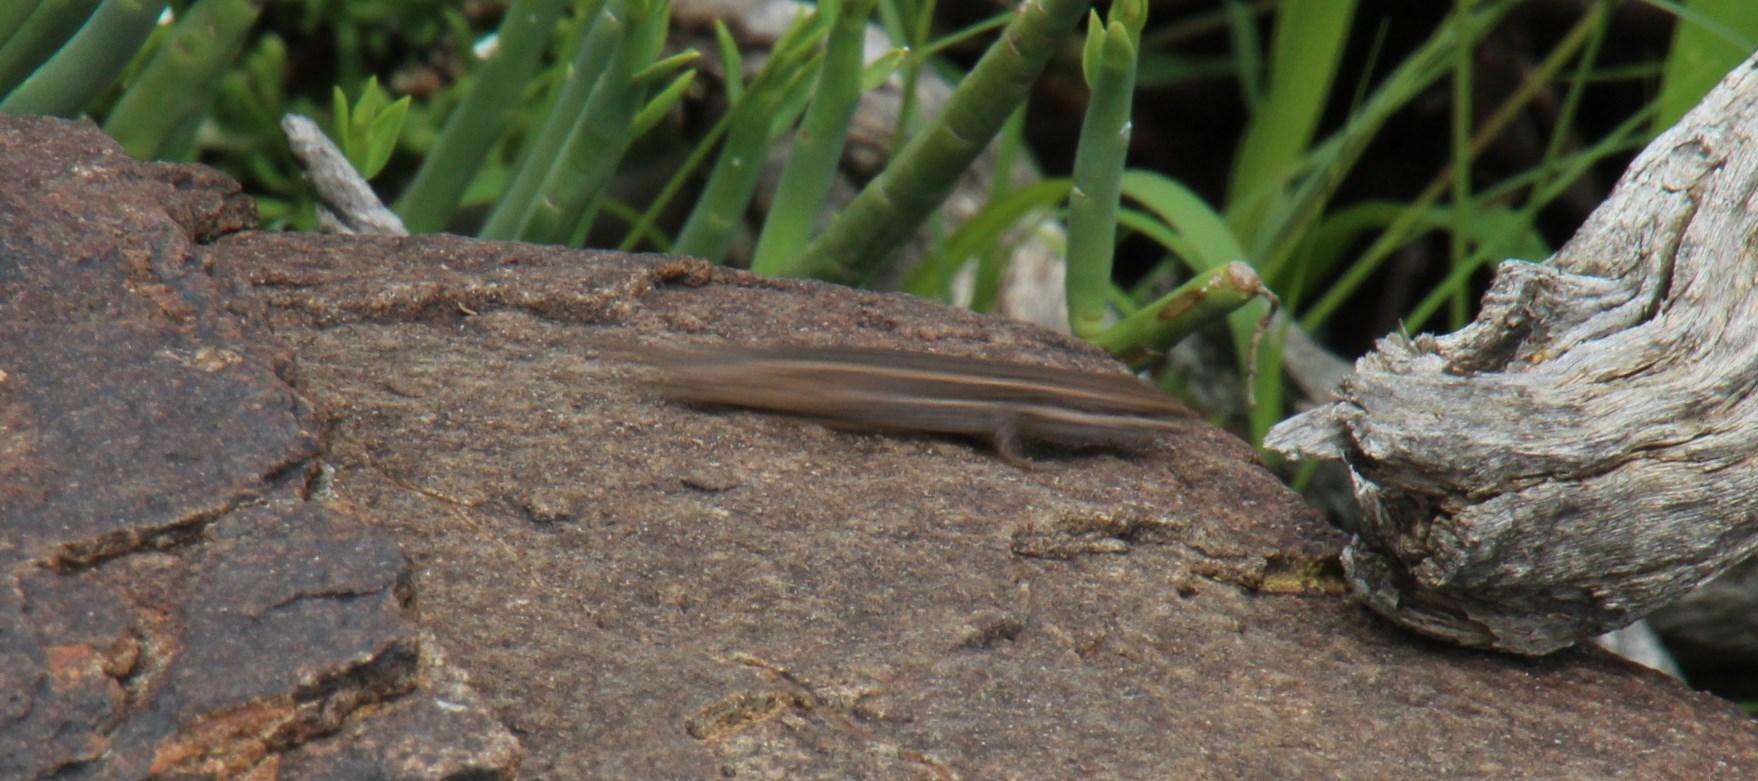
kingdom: Animalia
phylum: Chordata
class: Squamata
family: Scincidae
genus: Trachylepis
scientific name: Trachylepis variegata
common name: Variegated skink
